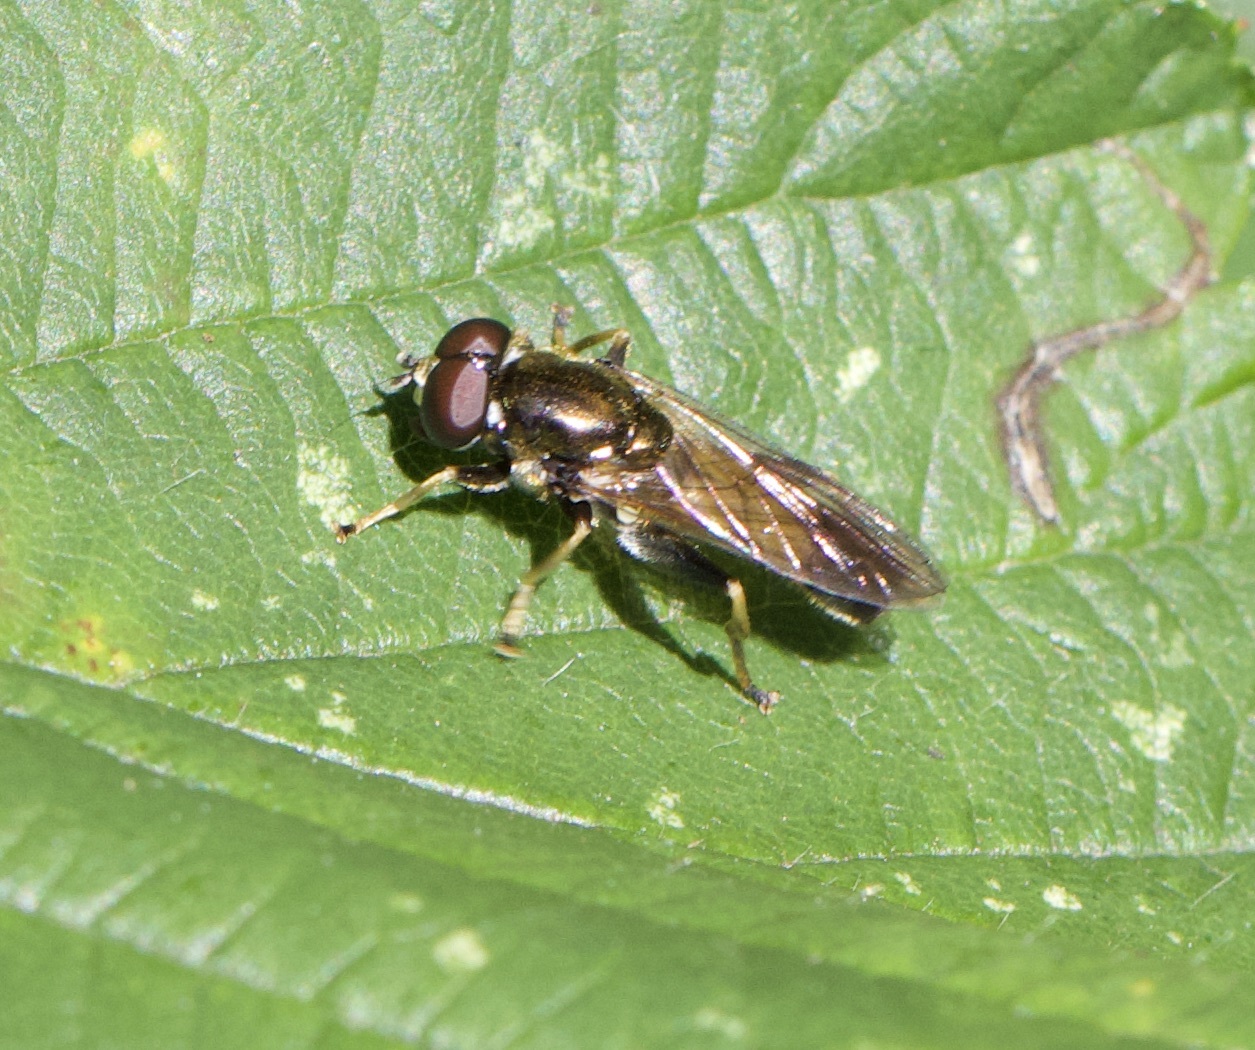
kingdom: Animalia
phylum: Arthropoda
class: Insecta
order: Diptera
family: Syrphidae
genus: Xylota
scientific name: Xylota segnis
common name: Brown-toed forest fly
